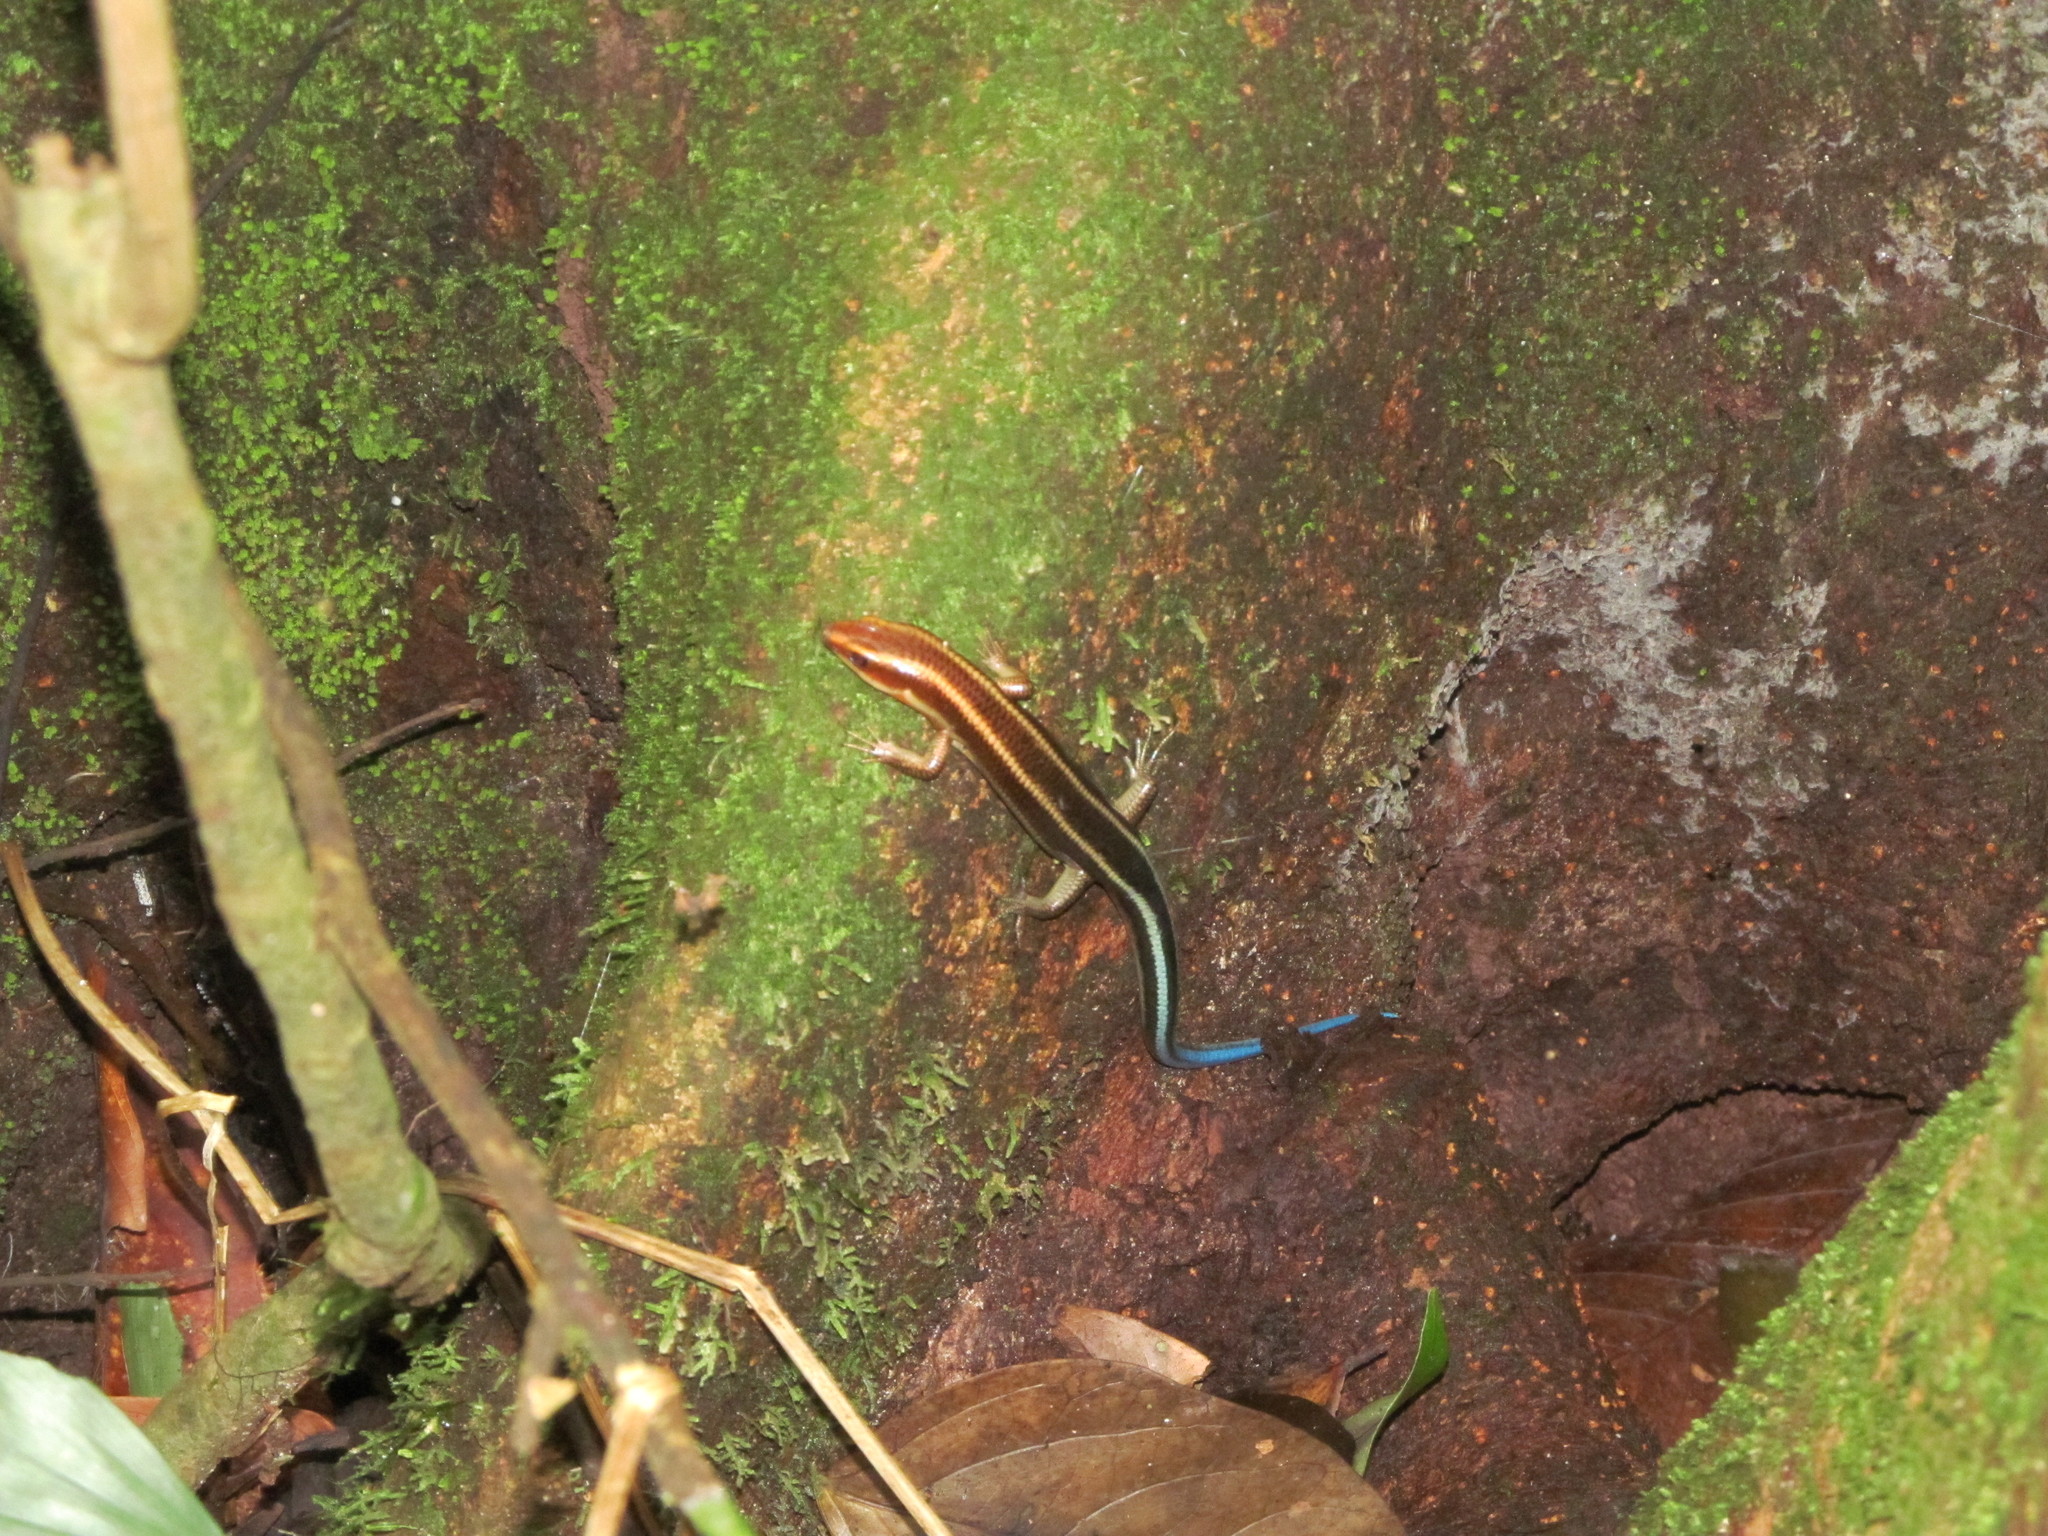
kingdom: Animalia
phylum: Chordata
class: Squamata
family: Scincidae
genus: Plestiodon
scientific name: Plestiodon quadrilineatus
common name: Four-striped skink
